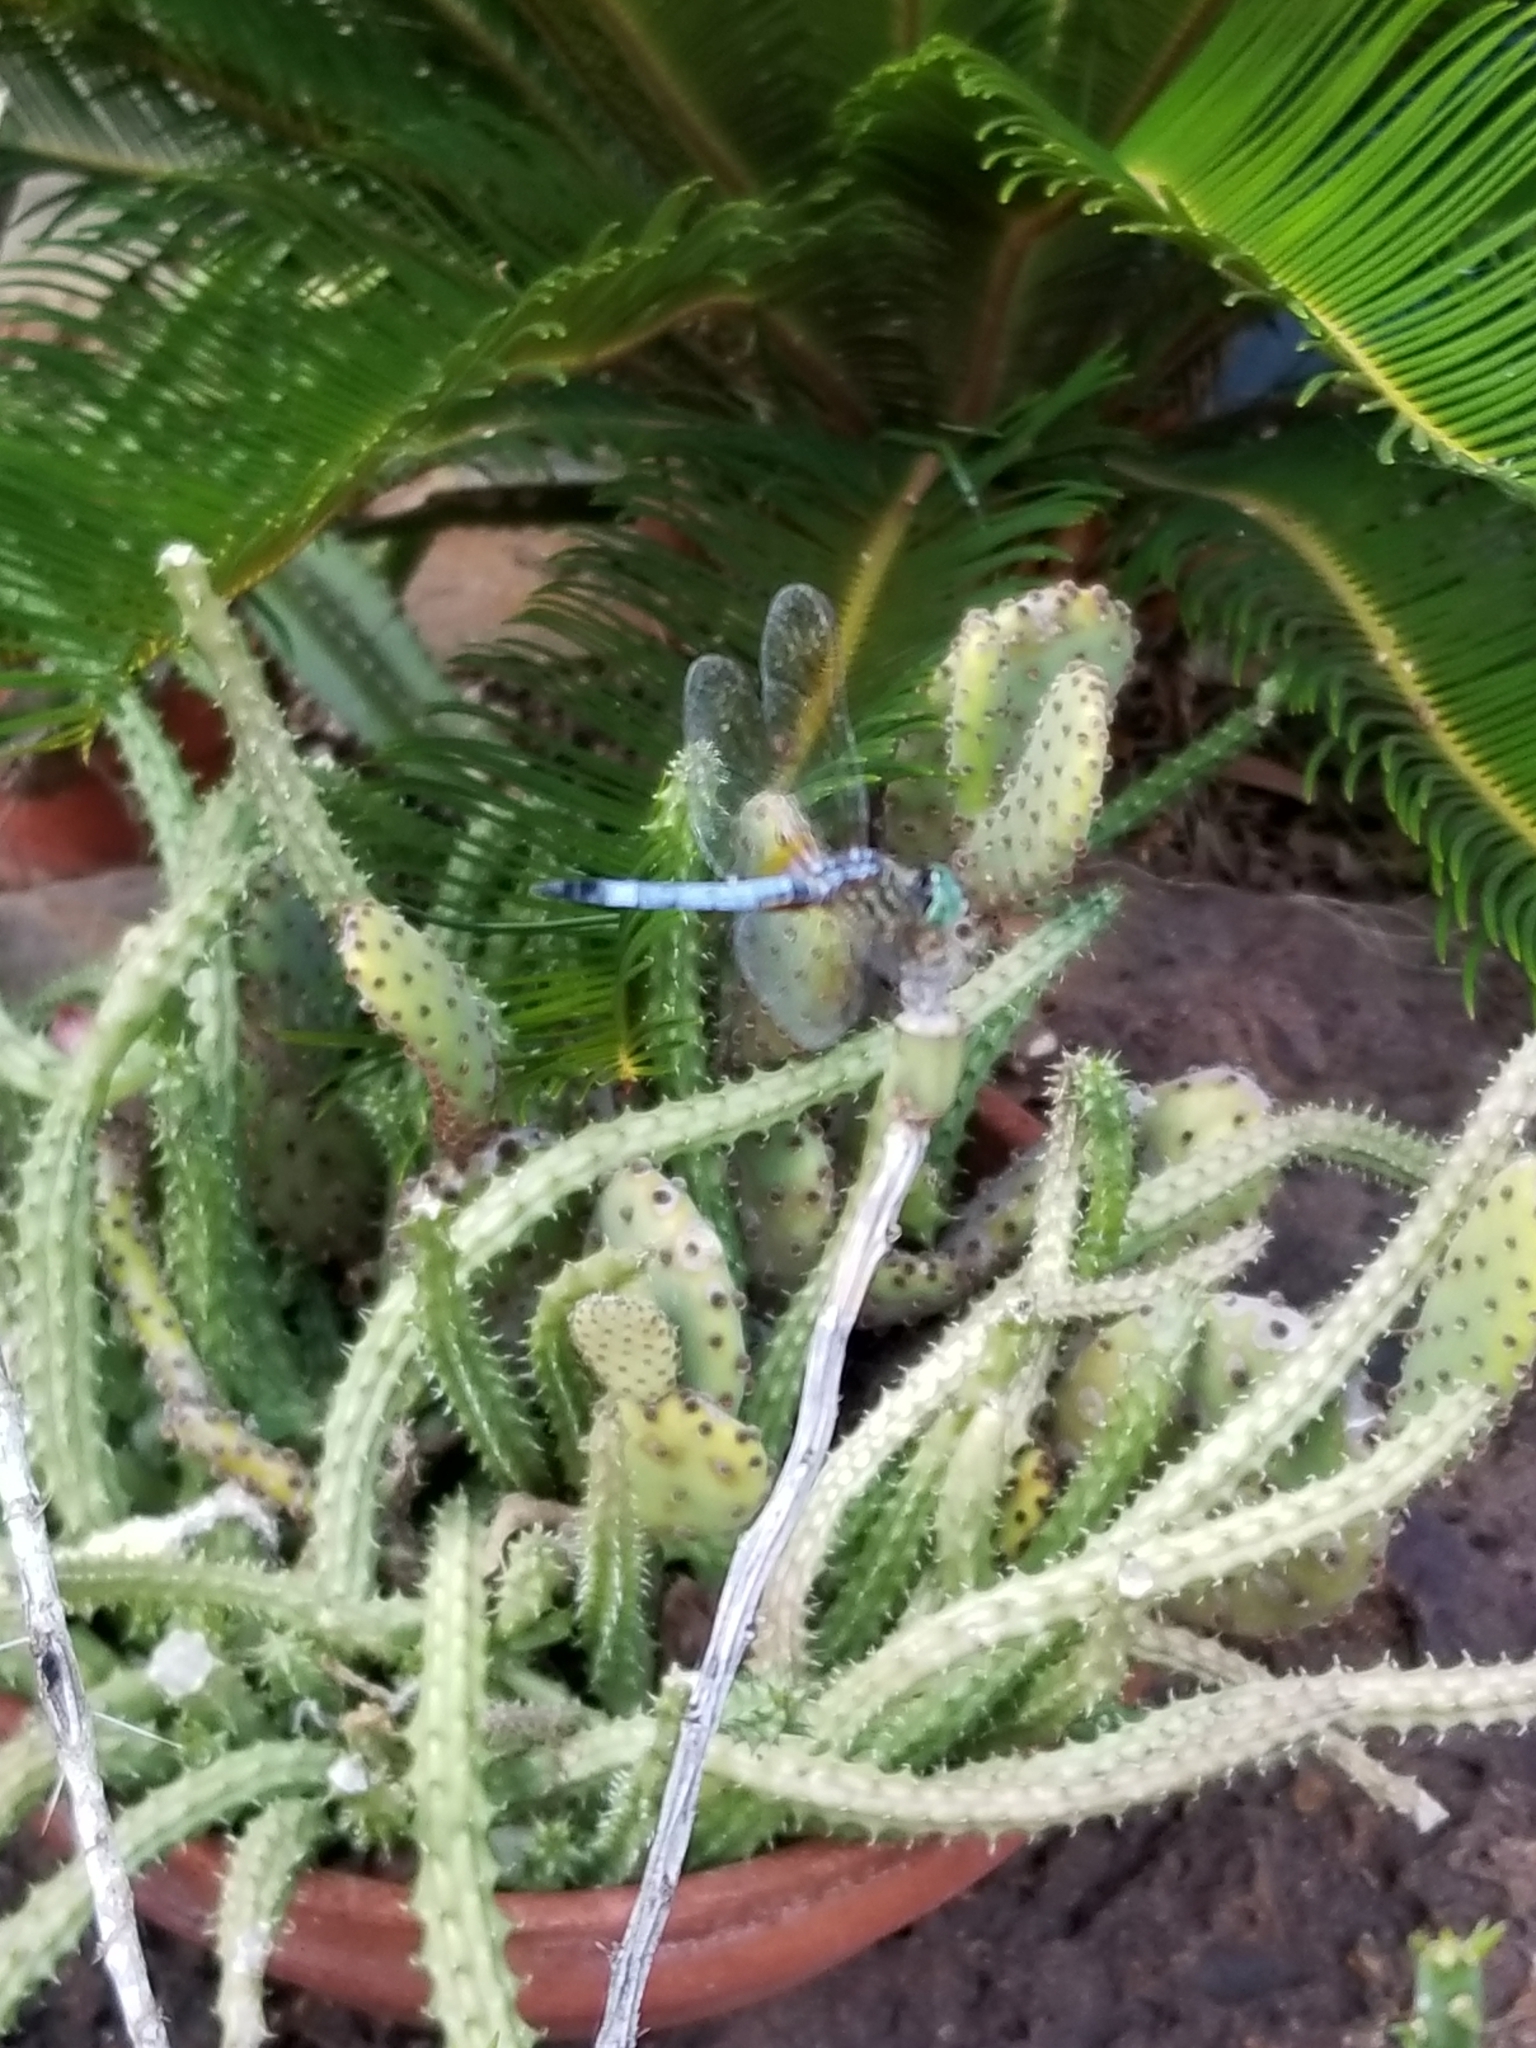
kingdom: Animalia
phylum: Arthropoda
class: Insecta
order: Odonata
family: Libellulidae
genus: Pachydiplax
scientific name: Pachydiplax longipennis
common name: Blue dasher
